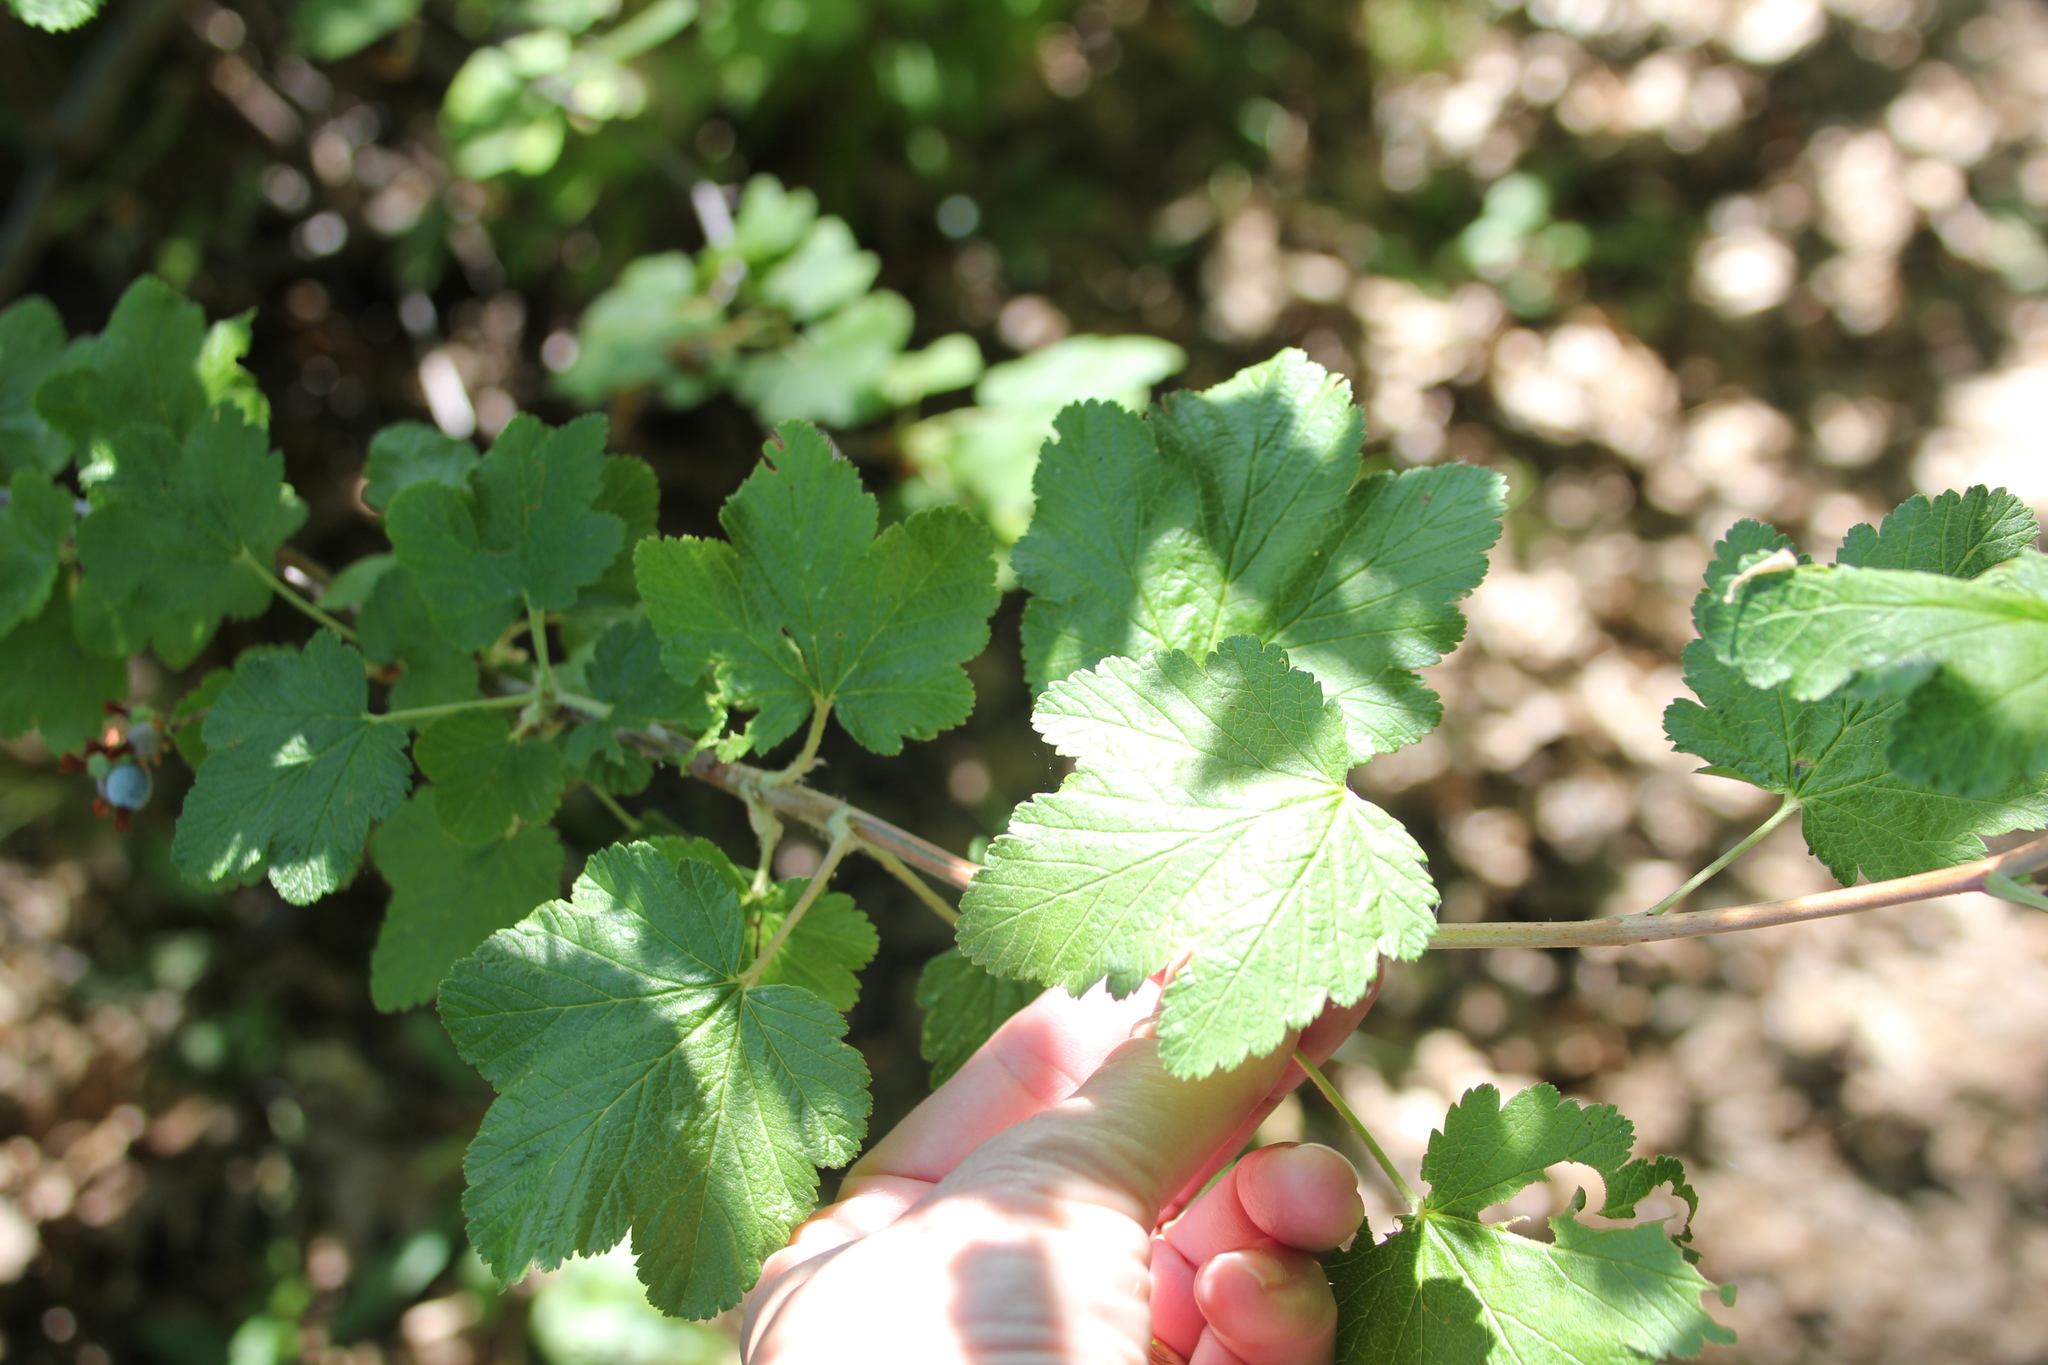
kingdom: Plantae
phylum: Tracheophyta
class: Magnoliopsida
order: Saxifragales
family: Grossulariaceae
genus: Ribes
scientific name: Ribes nevadense
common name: Mountain pink currant
